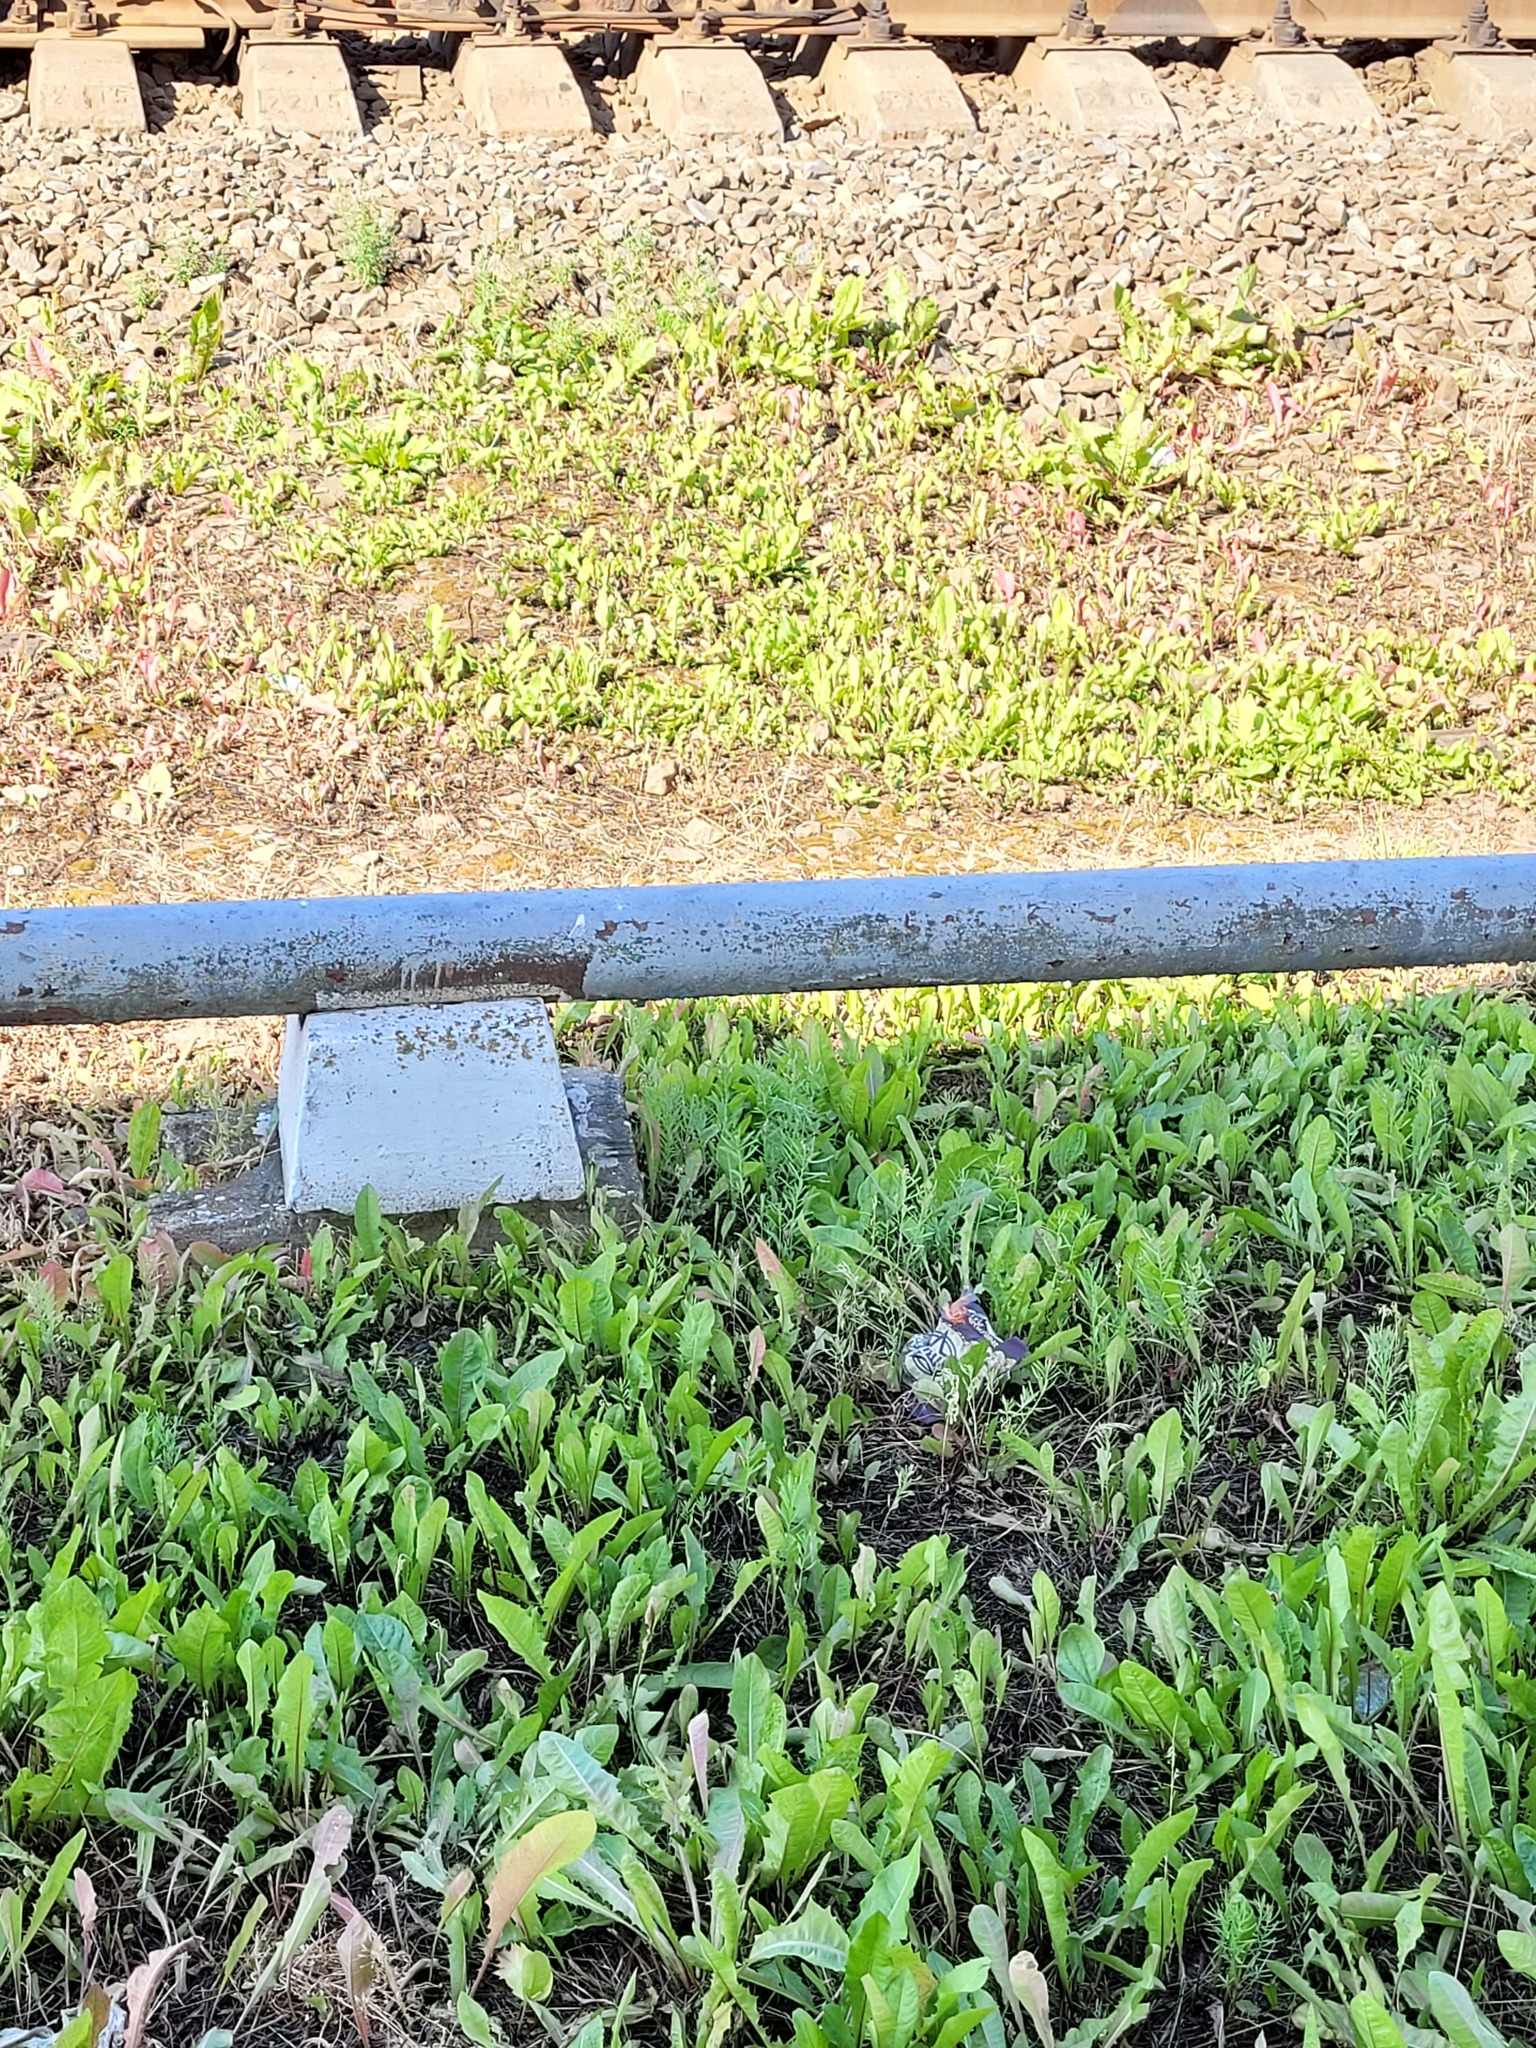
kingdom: Plantae
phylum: Tracheophyta
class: Magnoliopsida
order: Lamiales
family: Plantaginaceae
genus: Linaria
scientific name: Linaria vulgaris
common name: Butter and eggs
